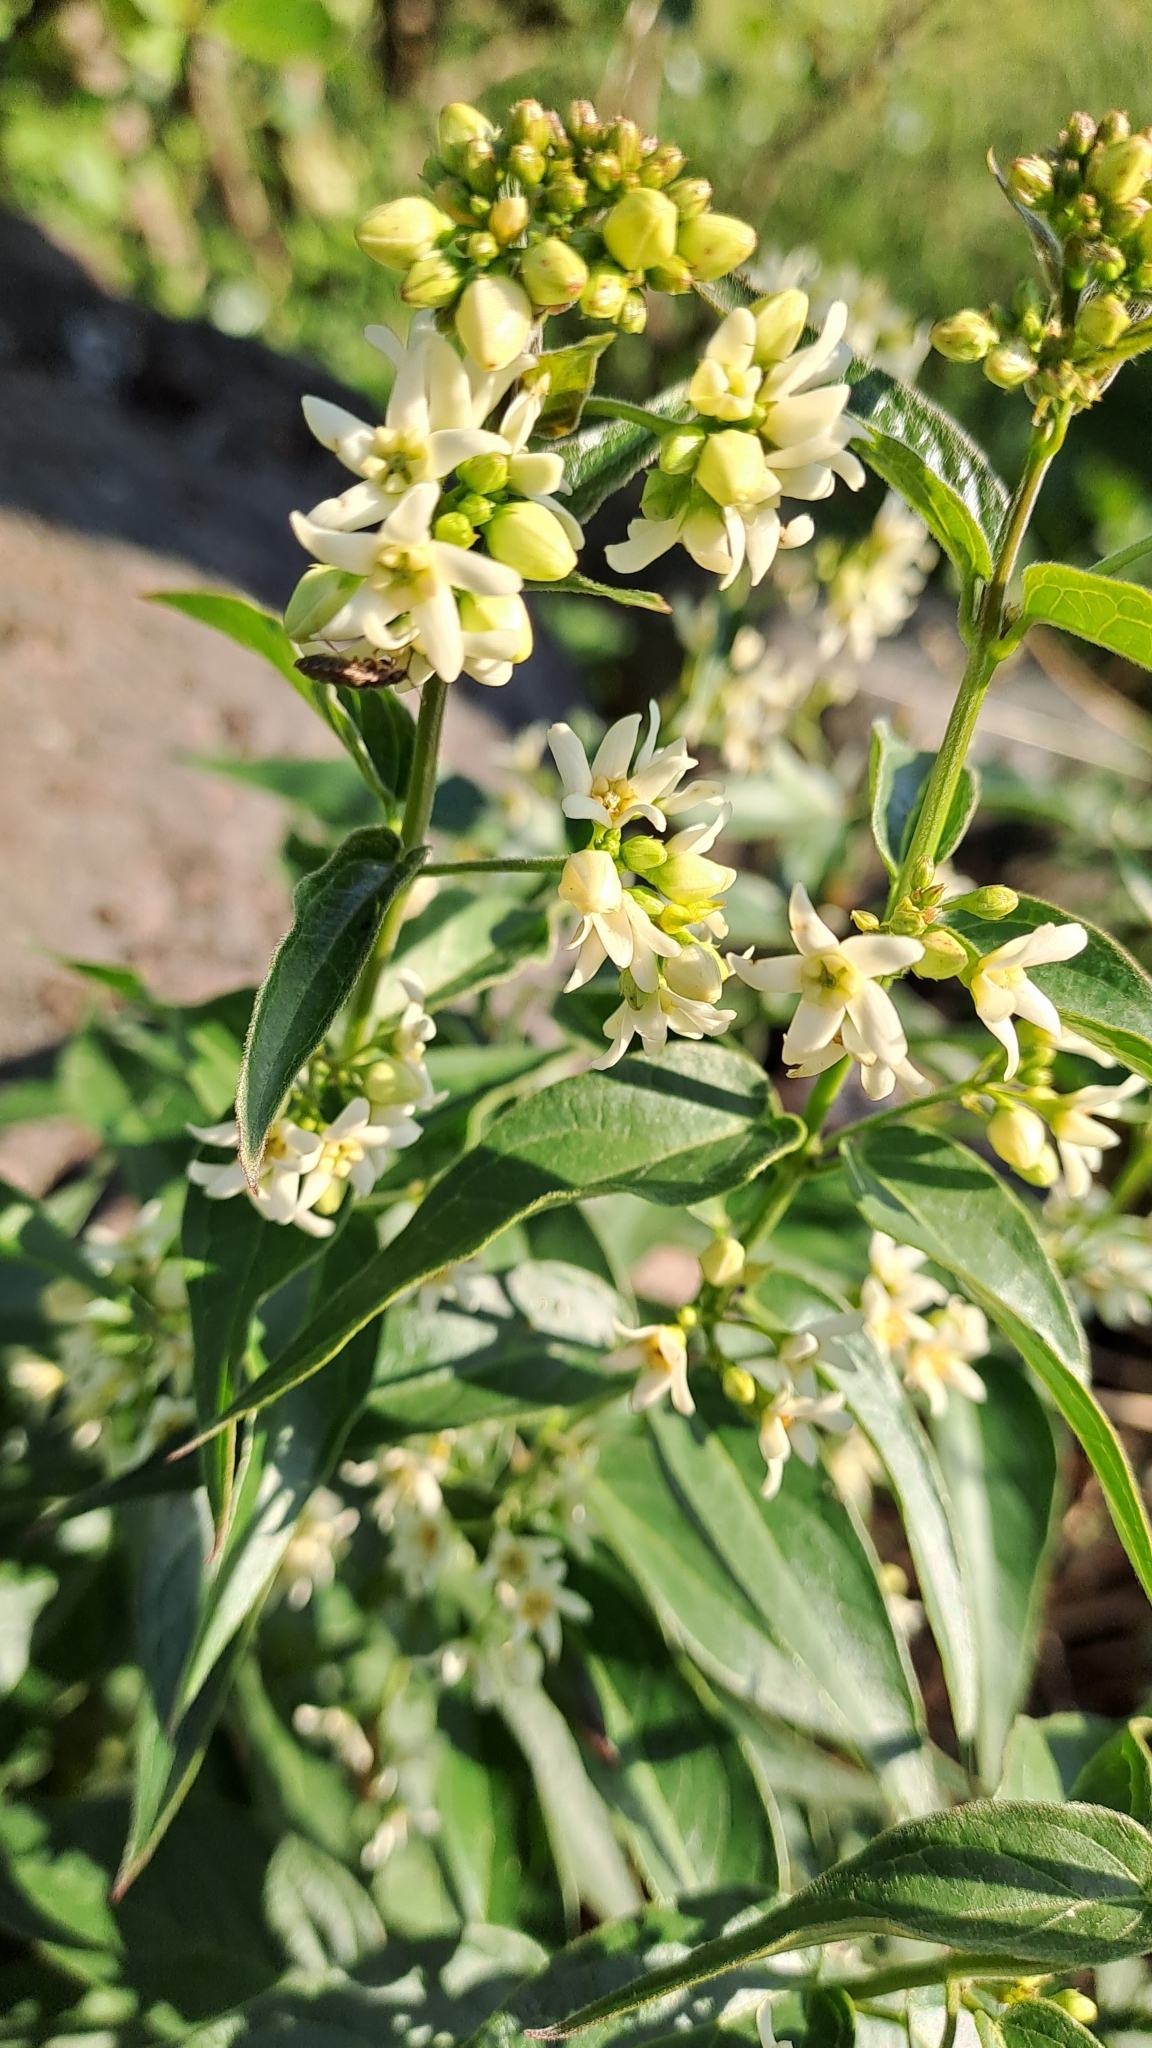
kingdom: Plantae
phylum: Tracheophyta
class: Magnoliopsida
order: Gentianales
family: Apocynaceae
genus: Vincetoxicum
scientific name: Vincetoxicum hirundinaria
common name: White swallowwort
